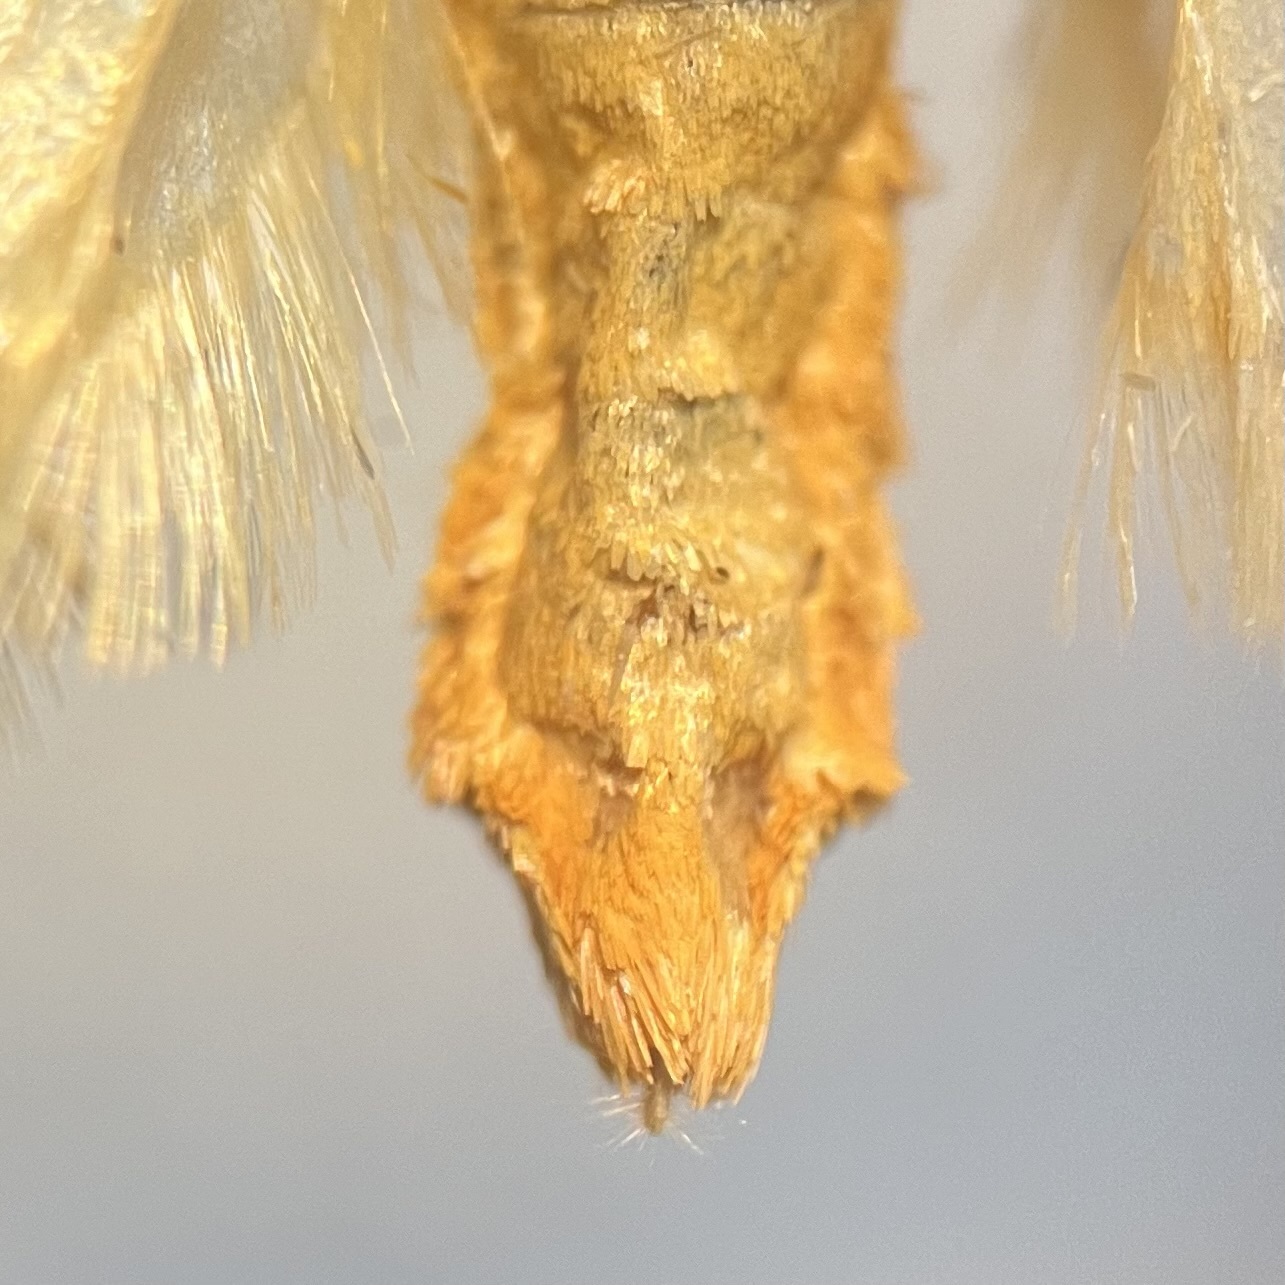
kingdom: Animalia
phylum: Arthropoda
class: Insecta
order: Lepidoptera
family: Ethmiidae
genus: Ethmia
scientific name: Ethmia bipunctella
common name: Bordered ermel
